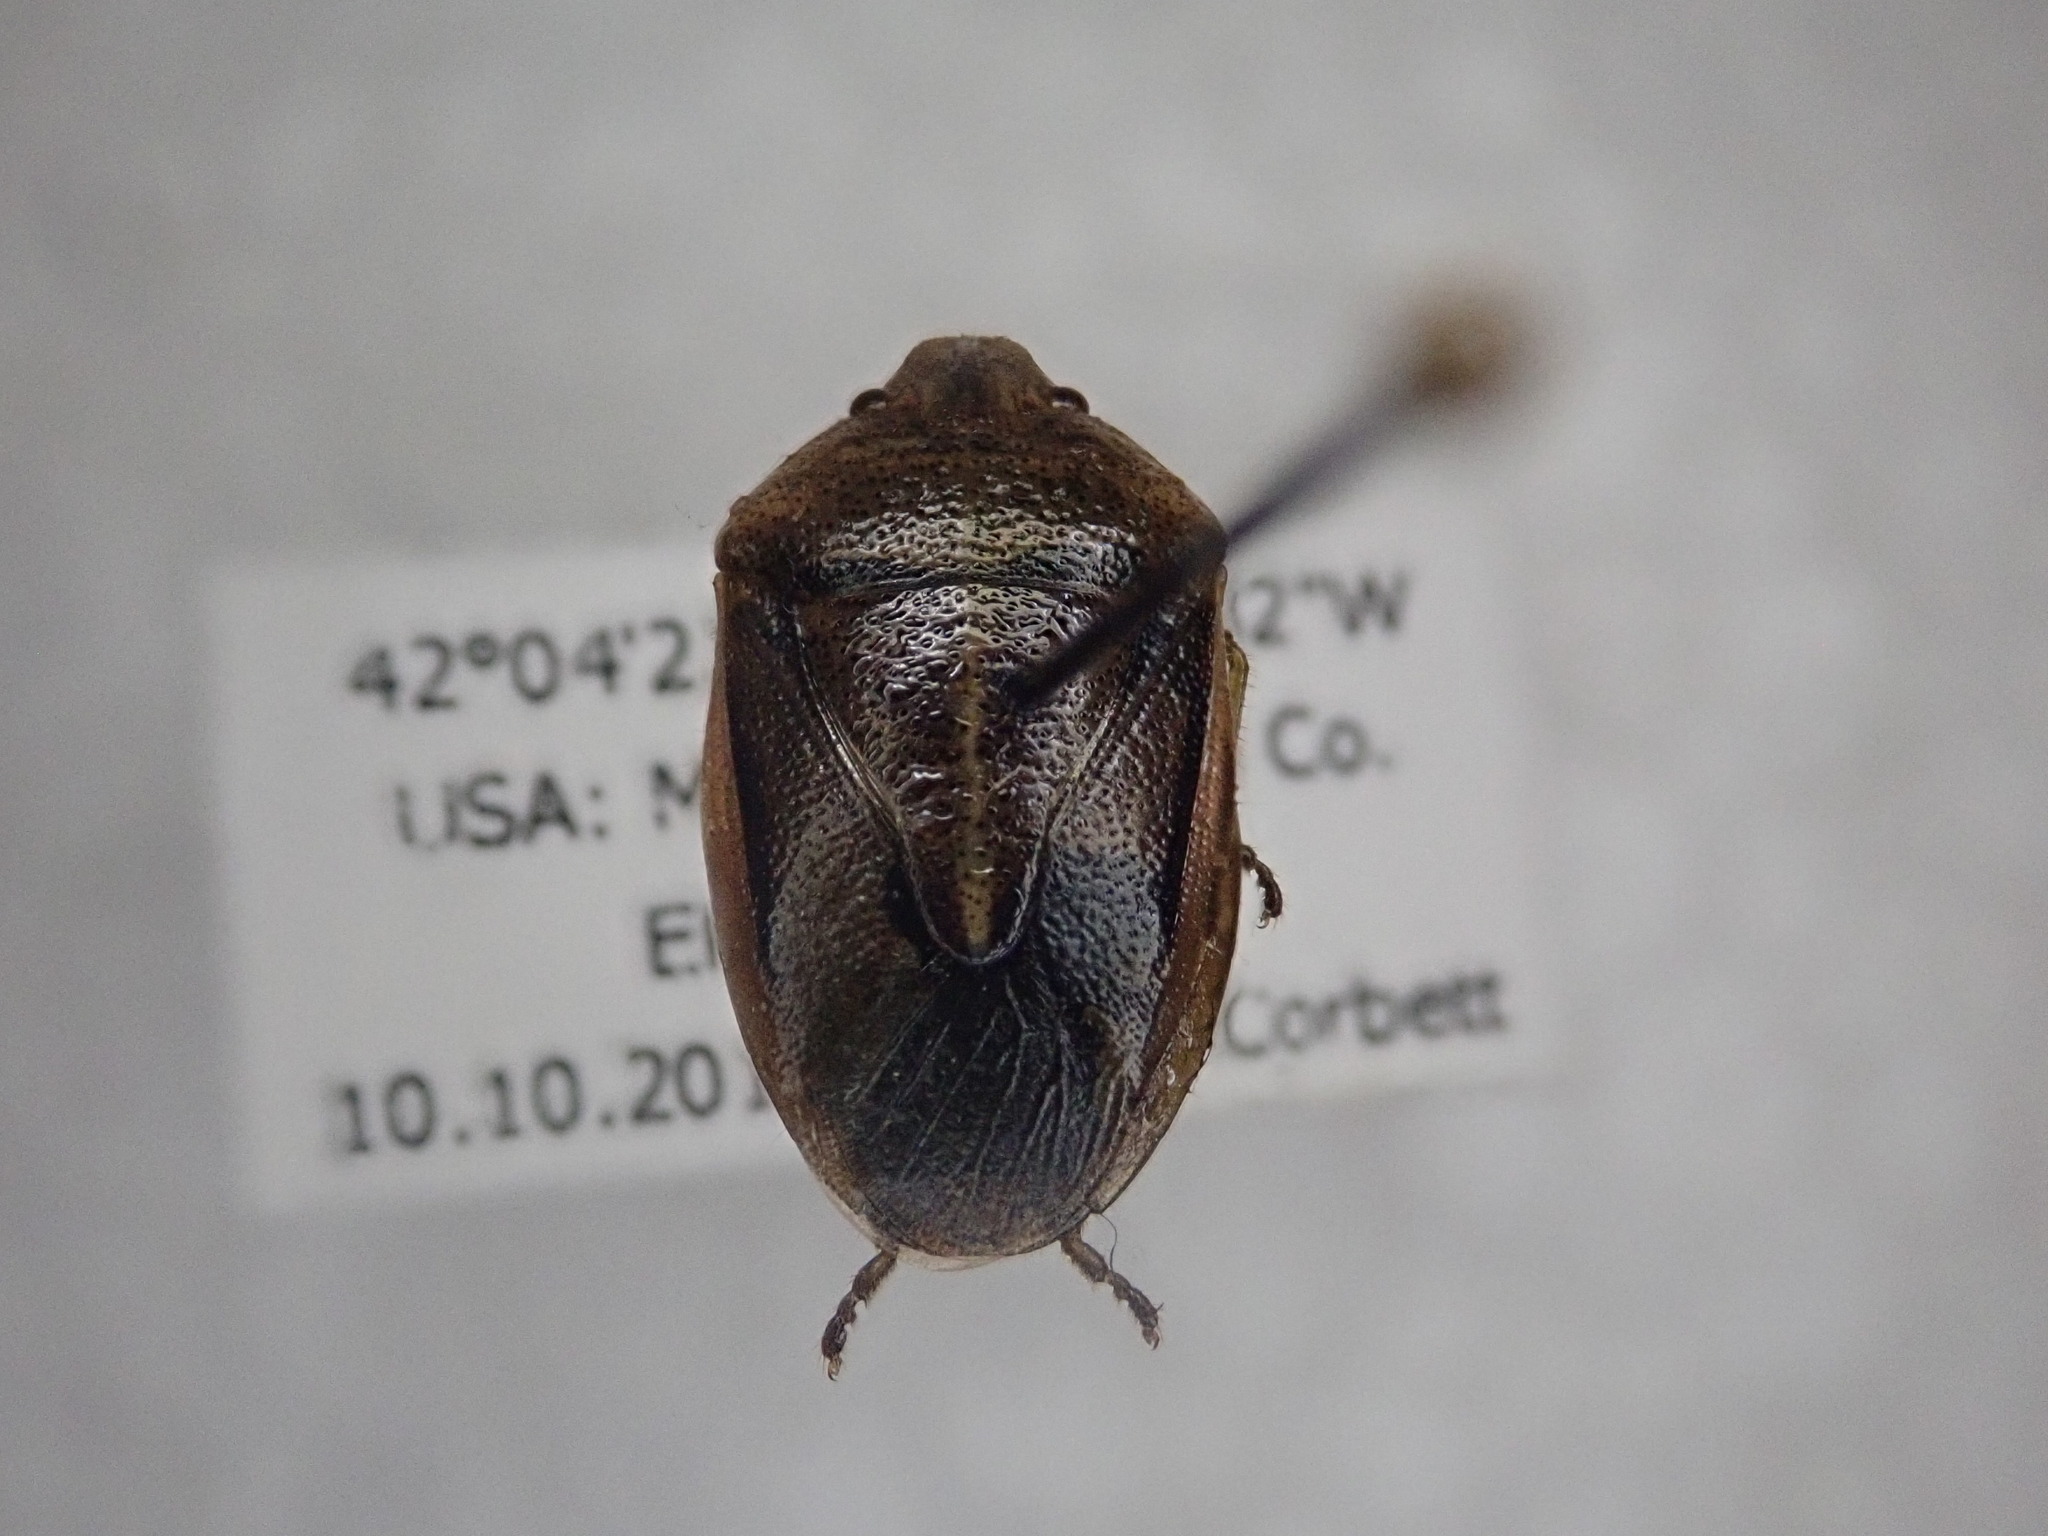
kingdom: Animalia
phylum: Arthropoda
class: Insecta
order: Hemiptera
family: Pentatomidae
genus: Chlorochroa
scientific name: Chlorochroa saucia
